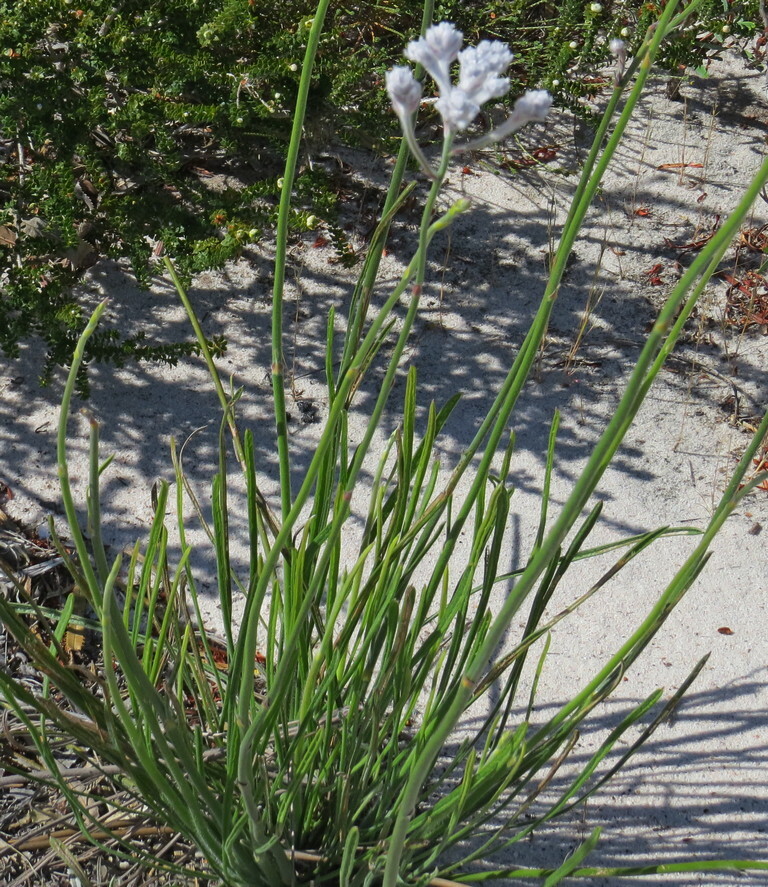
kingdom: Plantae
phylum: Tracheophyta
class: Magnoliopsida
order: Proteales
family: Proteaceae
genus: Conospermum
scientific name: Conospermum stoechadis
